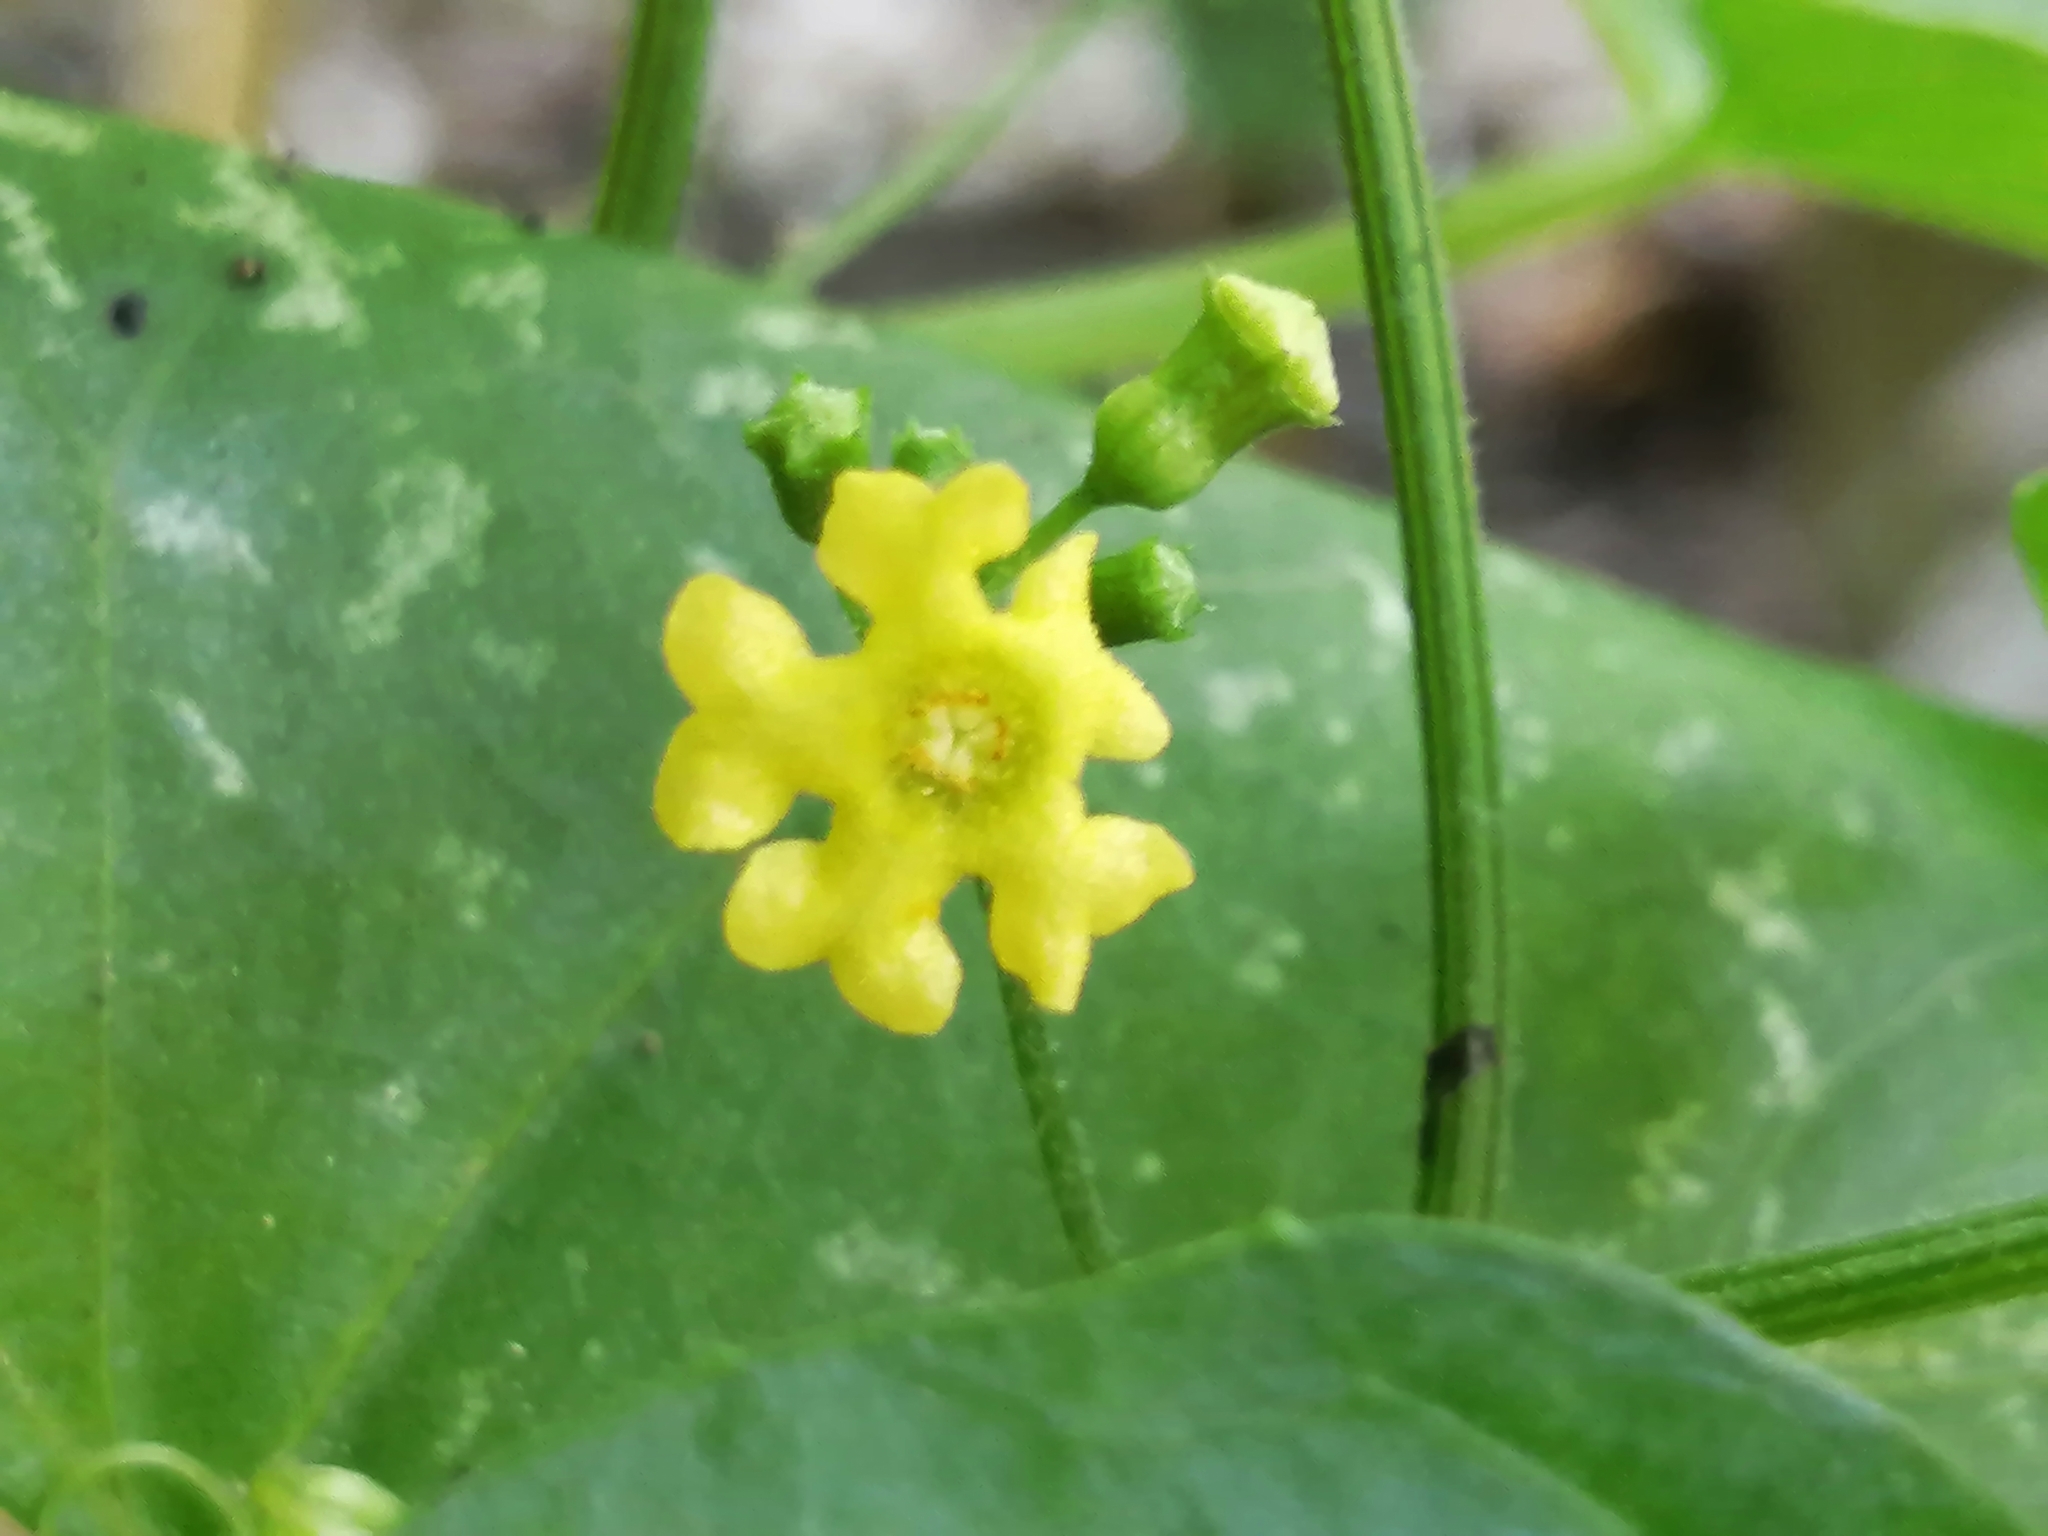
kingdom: Plantae
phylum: Tracheophyta
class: Magnoliopsida
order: Cucurbitales
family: Cucurbitaceae
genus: Melothria
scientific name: Melothria pendula
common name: Creeping-cucumber
